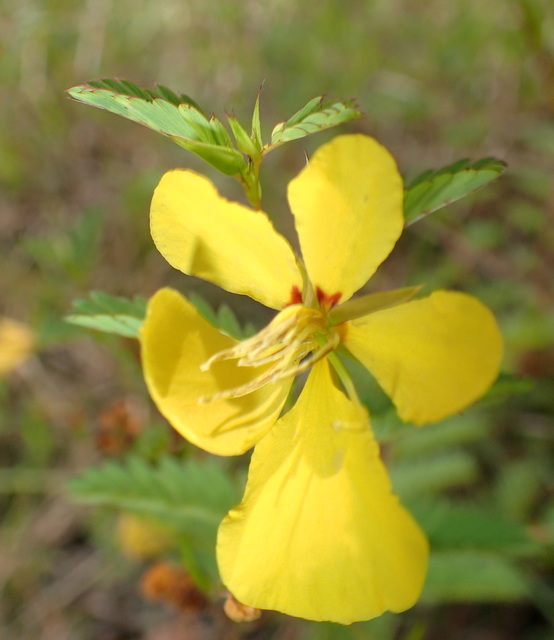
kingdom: Plantae
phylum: Tracheophyta
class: Magnoliopsida
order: Fabales
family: Fabaceae
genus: Chamaecrista
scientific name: Chamaecrista fasciculata
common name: Golden cassia
